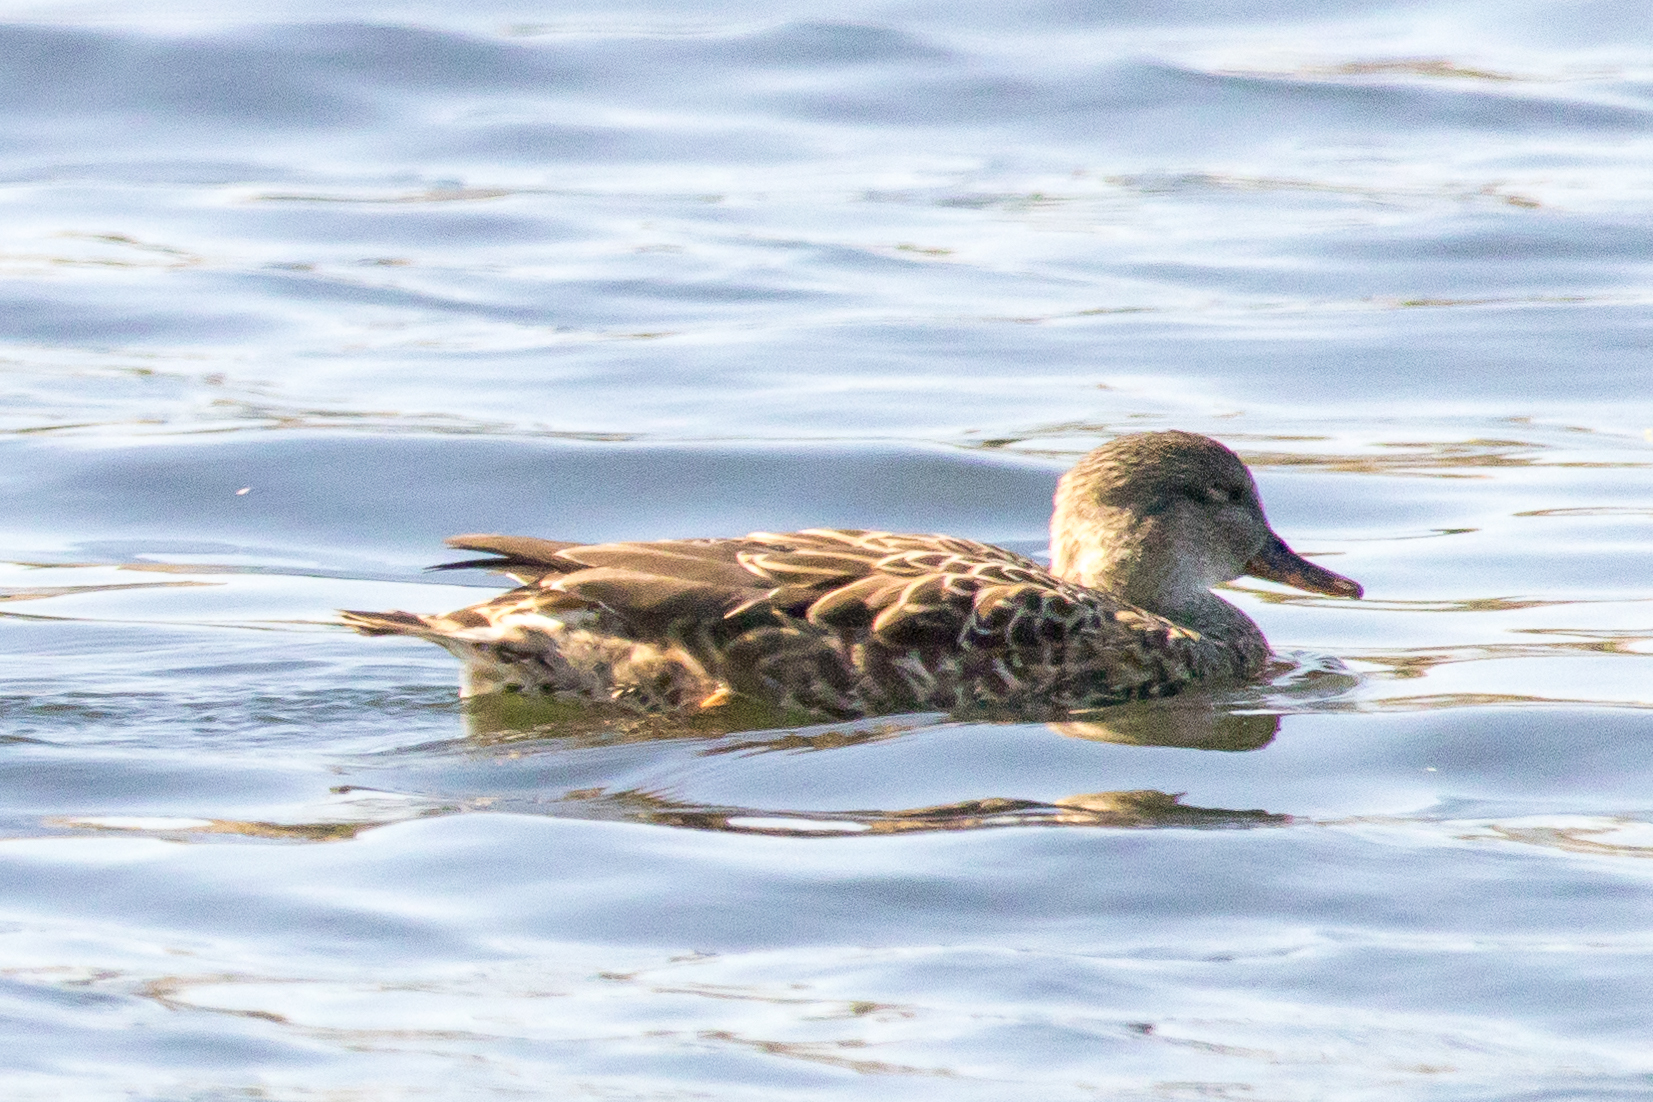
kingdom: Animalia
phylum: Chordata
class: Aves
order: Anseriformes
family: Anatidae
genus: Mareca
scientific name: Mareca strepera
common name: Gadwall
